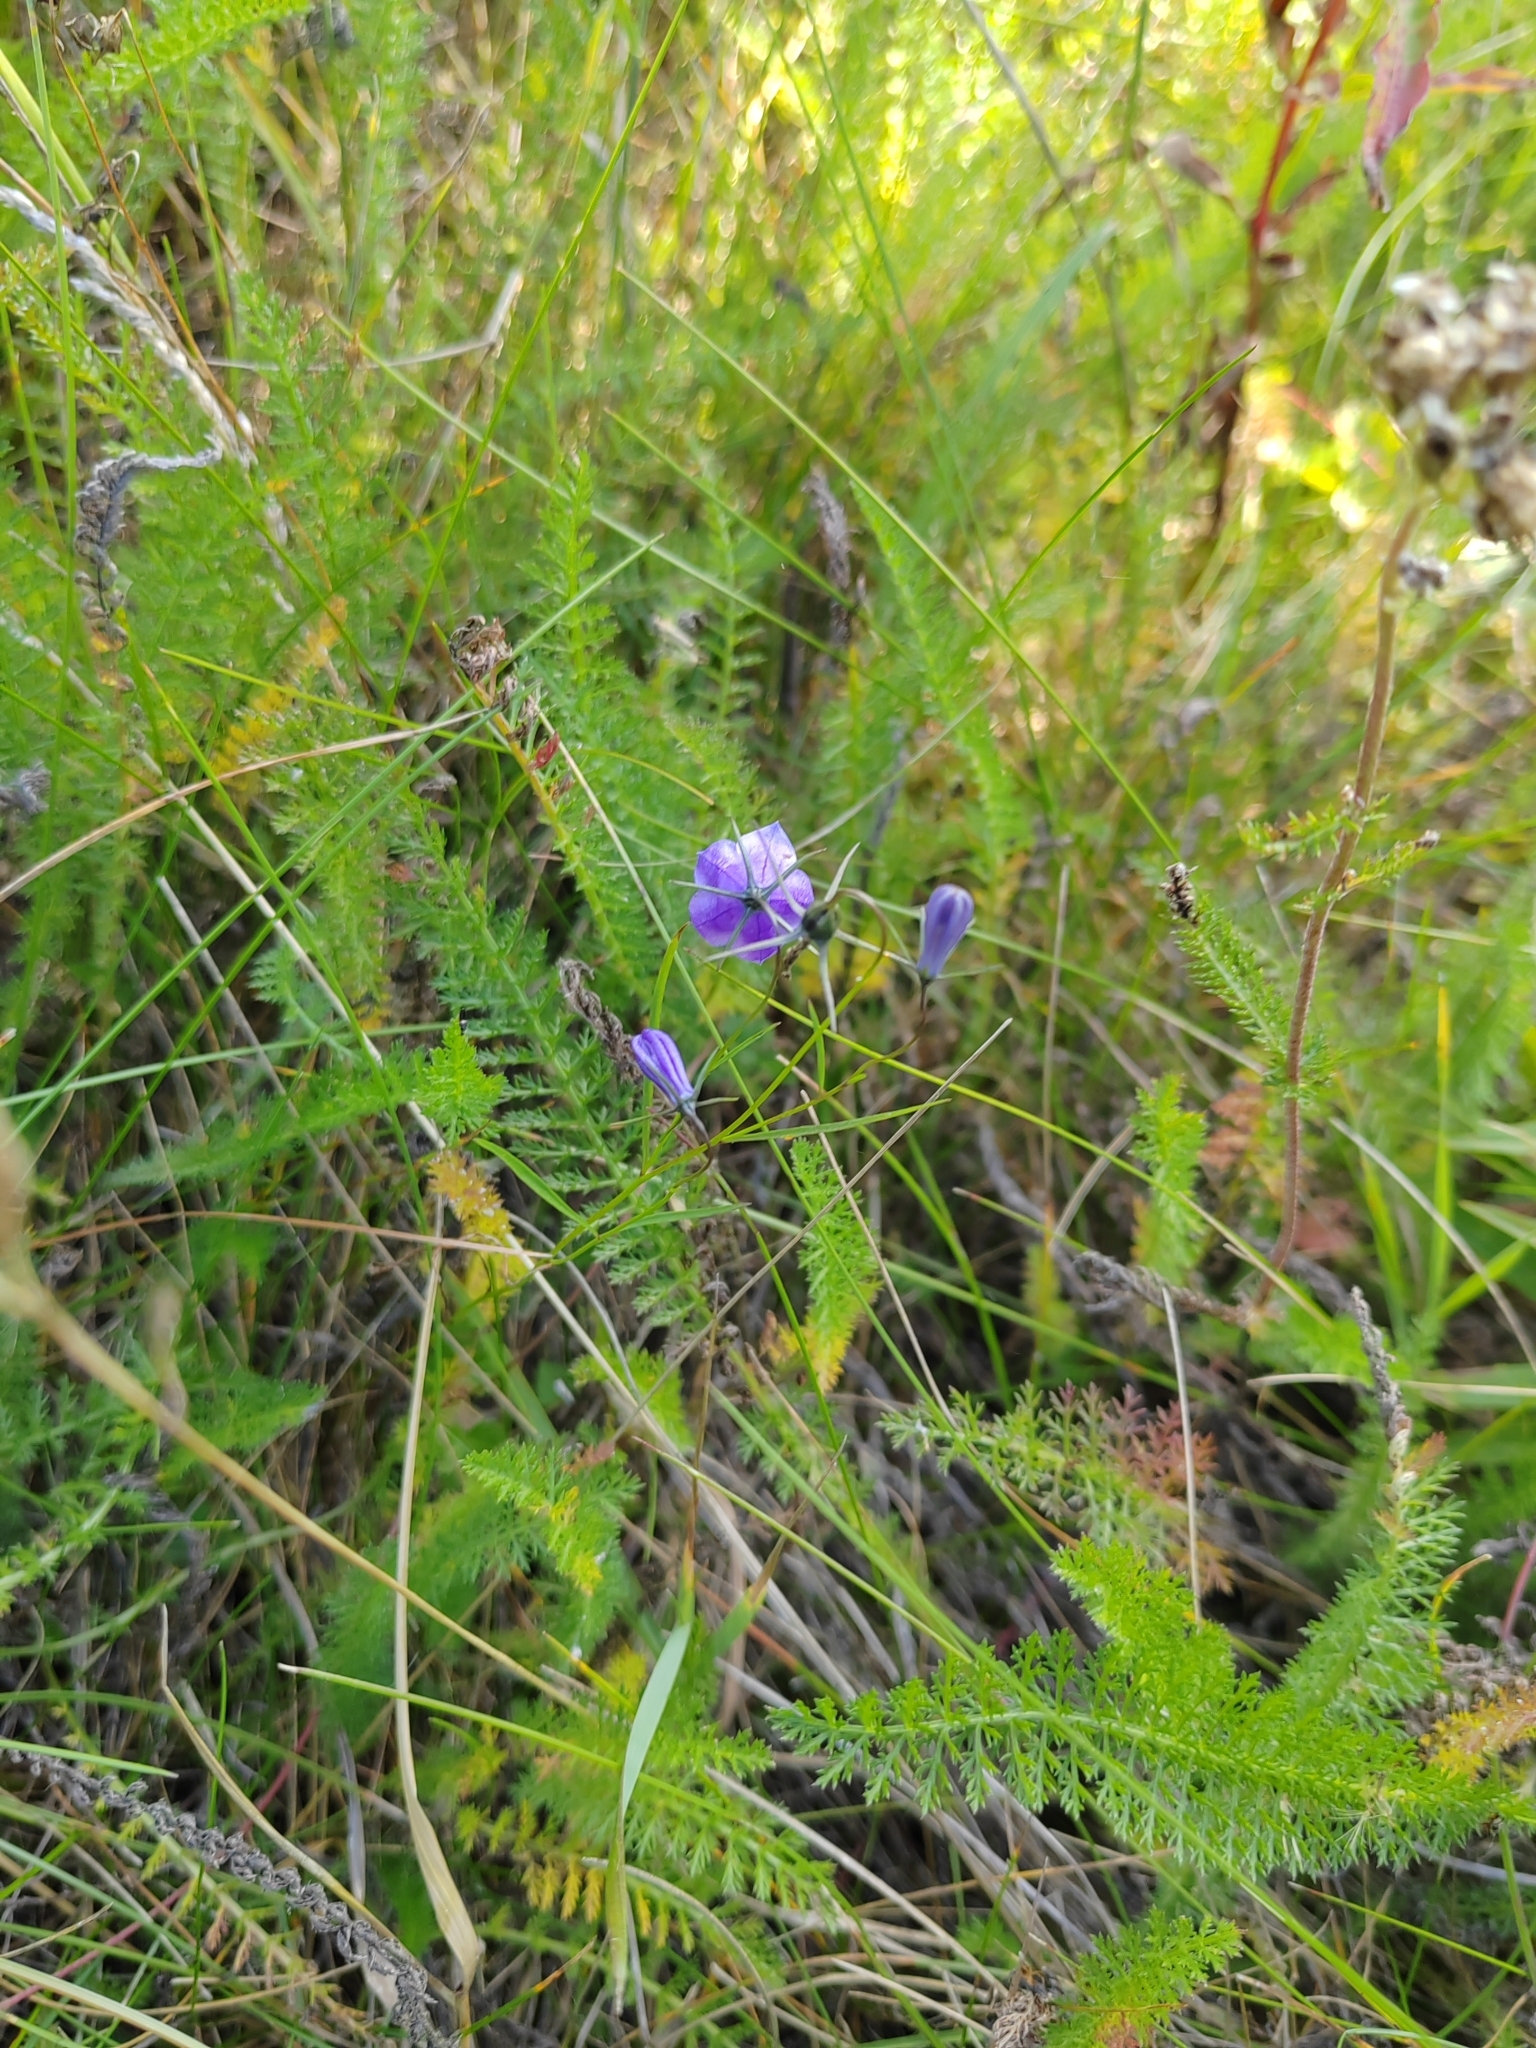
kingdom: Plantae
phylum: Tracheophyta
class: Magnoliopsida
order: Asterales
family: Campanulaceae
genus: Campanula
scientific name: Campanula rotundifolia
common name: Harebell
